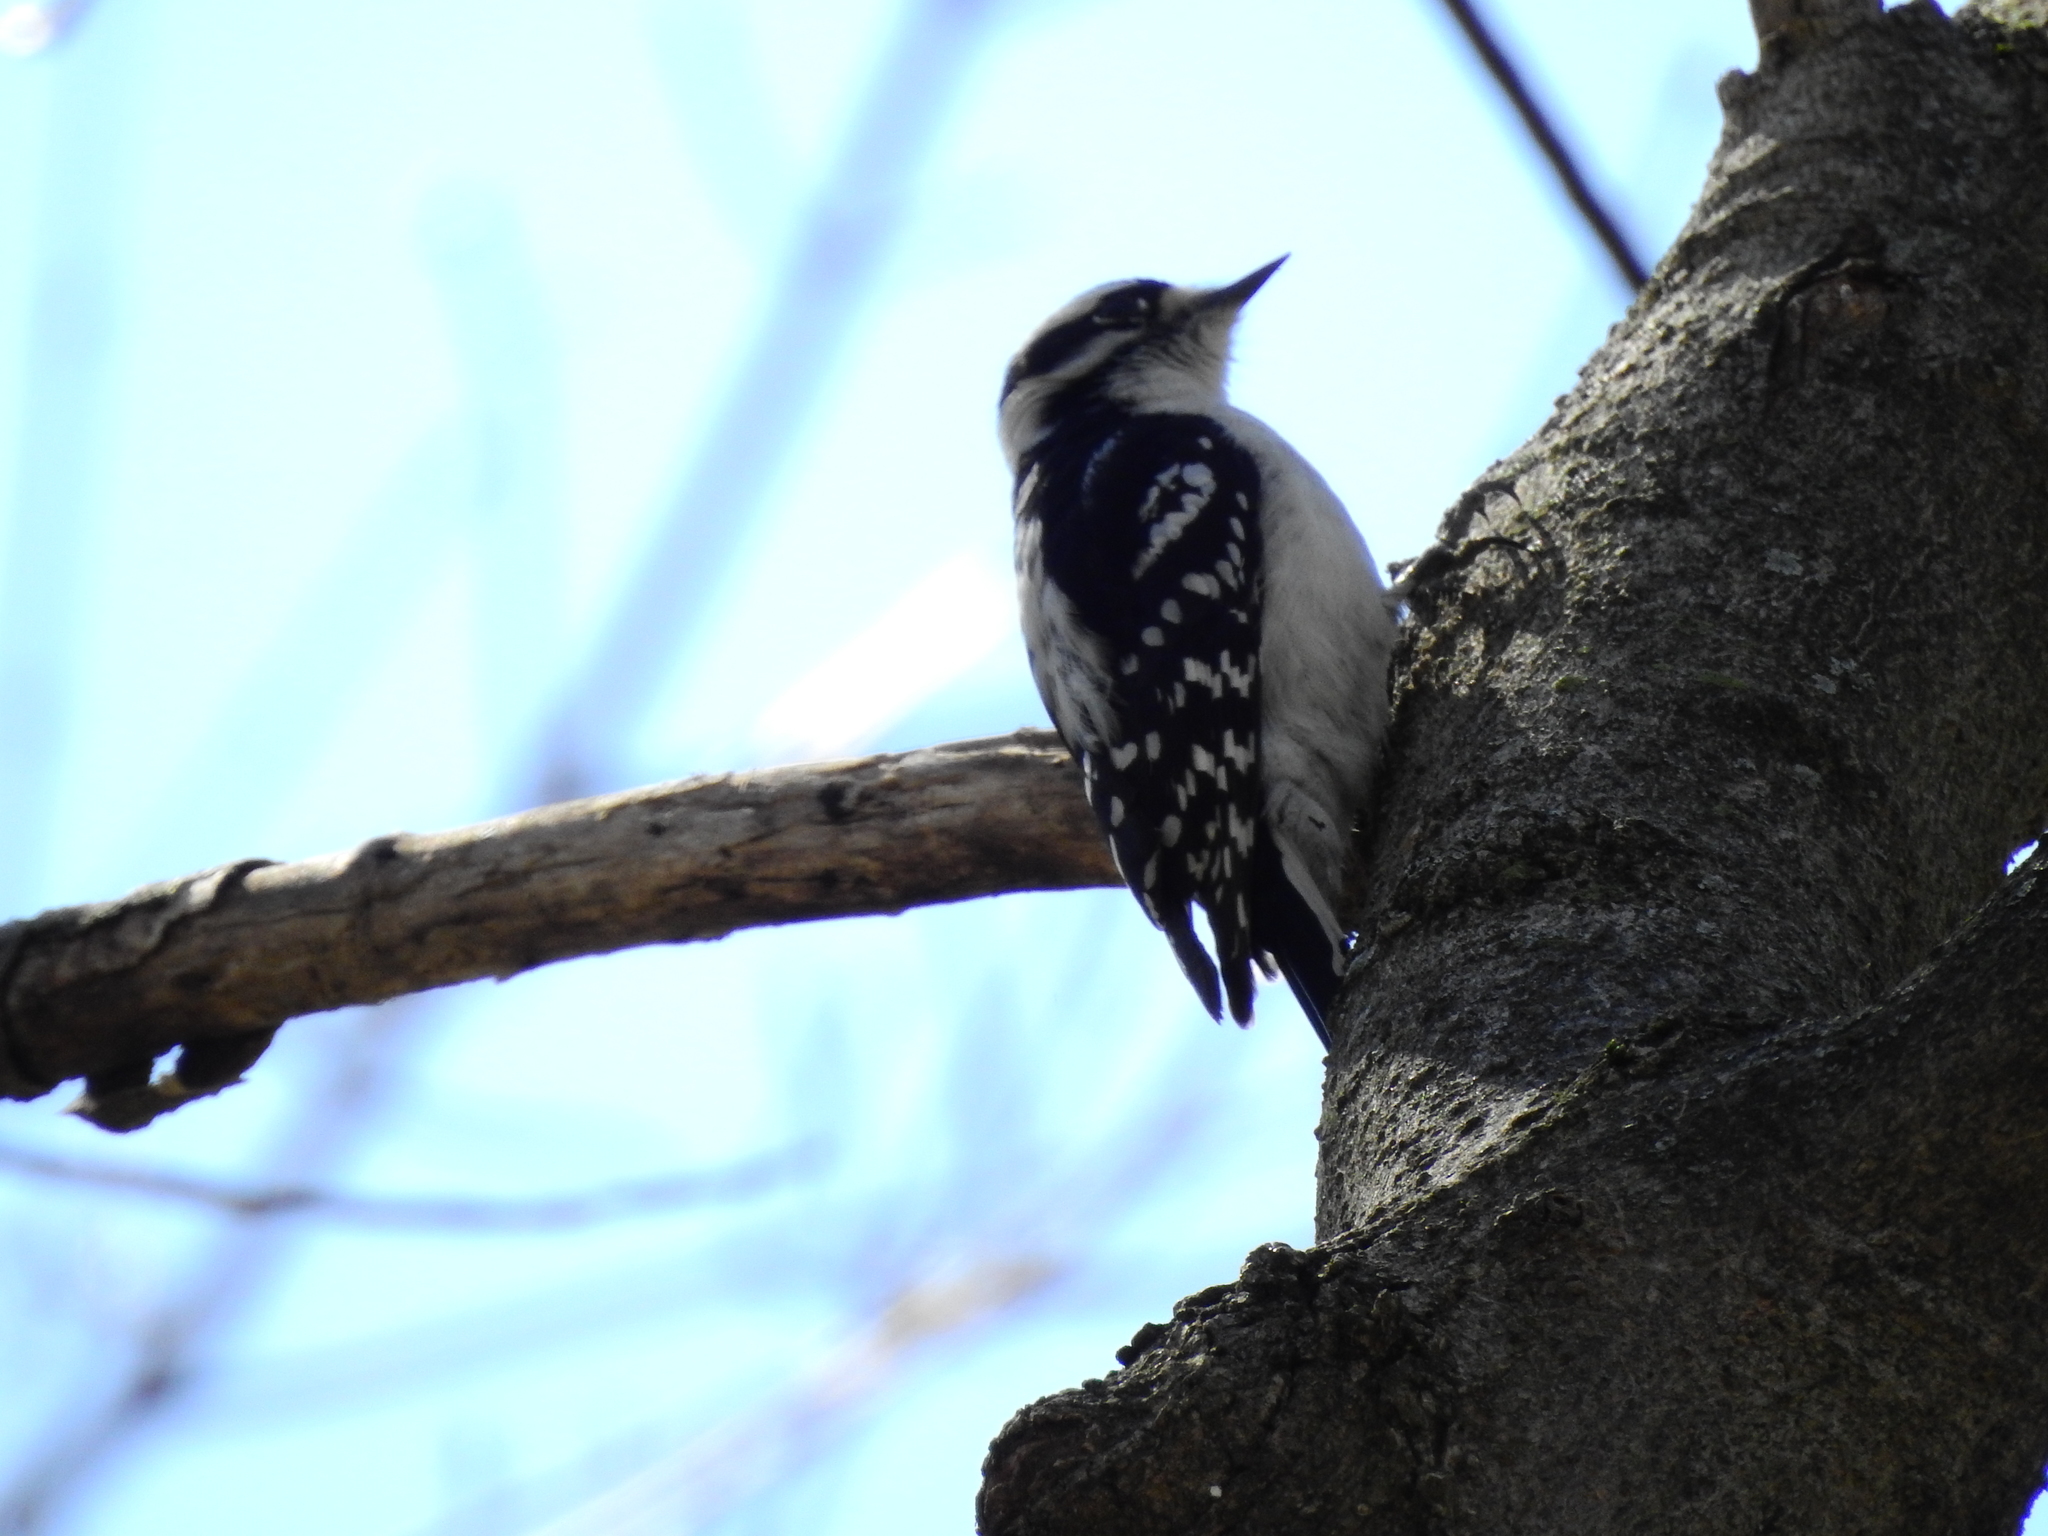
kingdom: Animalia
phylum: Chordata
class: Aves
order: Piciformes
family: Picidae
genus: Dryobates
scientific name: Dryobates pubescens
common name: Downy woodpecker
